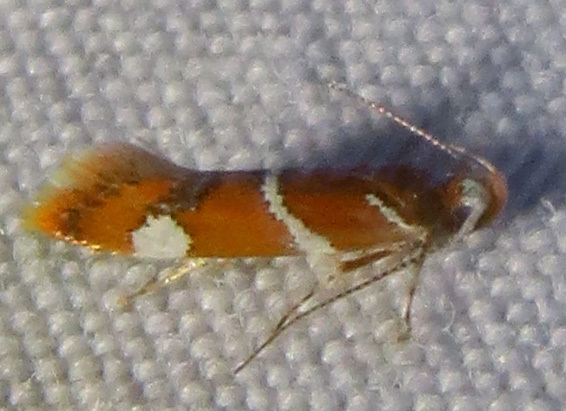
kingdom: Animalia
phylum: Arthropoda
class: Insecta
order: Lepidoptera
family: Oecophoridae
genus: Promalactis
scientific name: Promalactis suzukiella
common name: Moth
